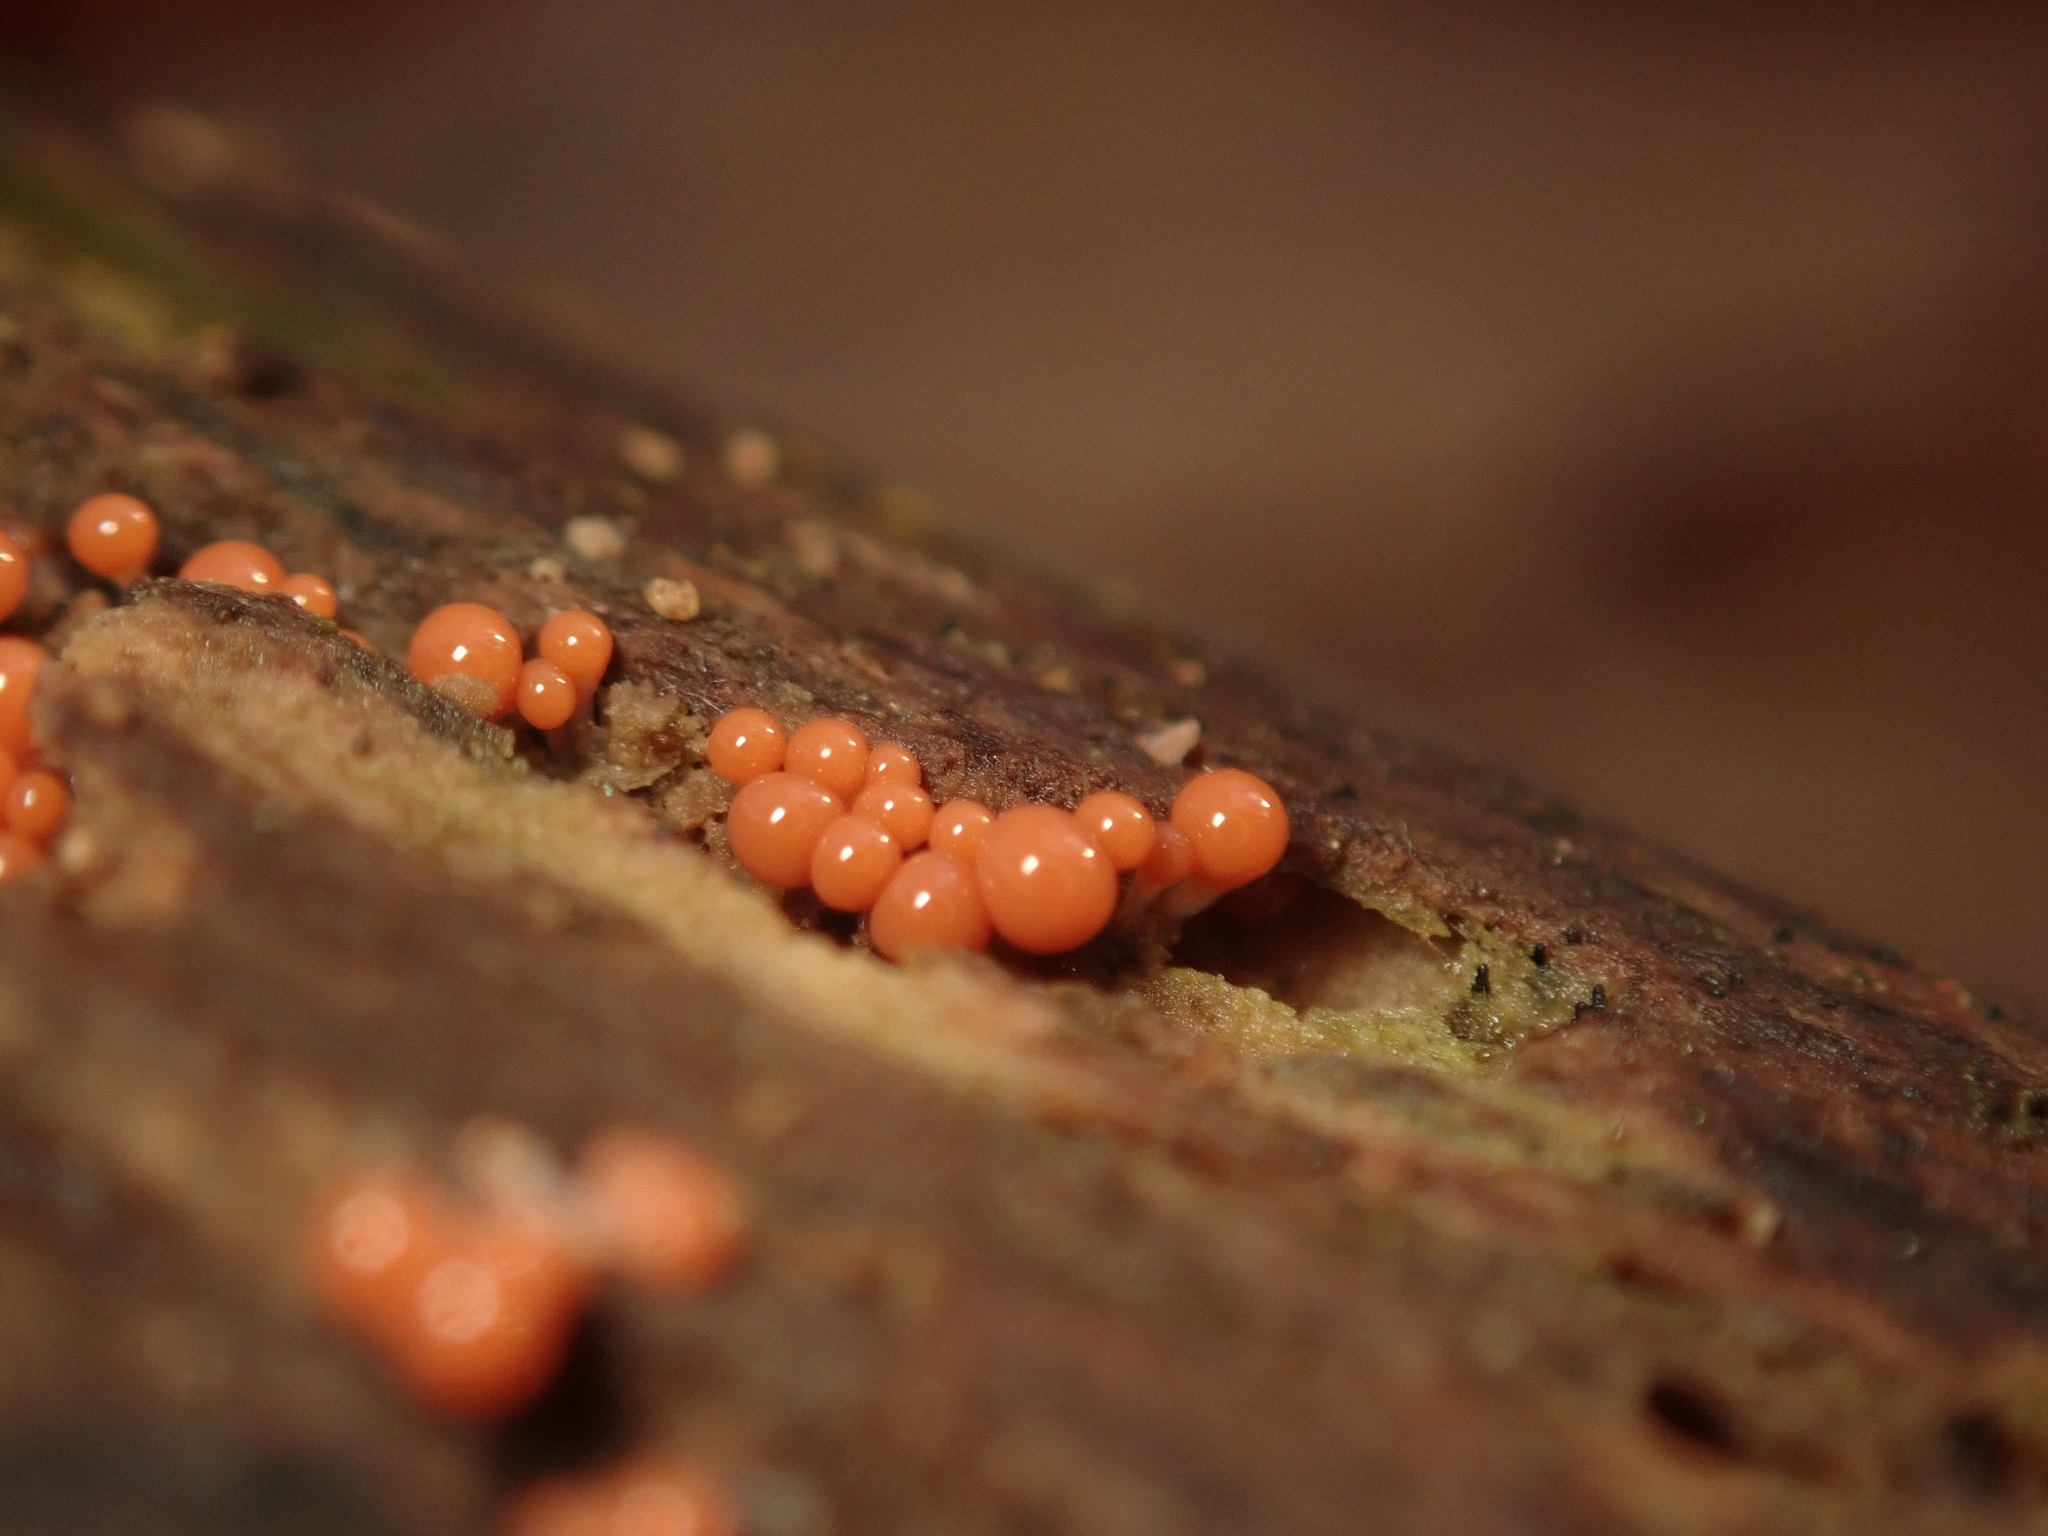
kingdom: Protozoa
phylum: Mycetozoa
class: Myxomycetes
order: Trichiales
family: Arcyriaceae
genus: Hemitrichia
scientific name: Hemitrichia decipiens
